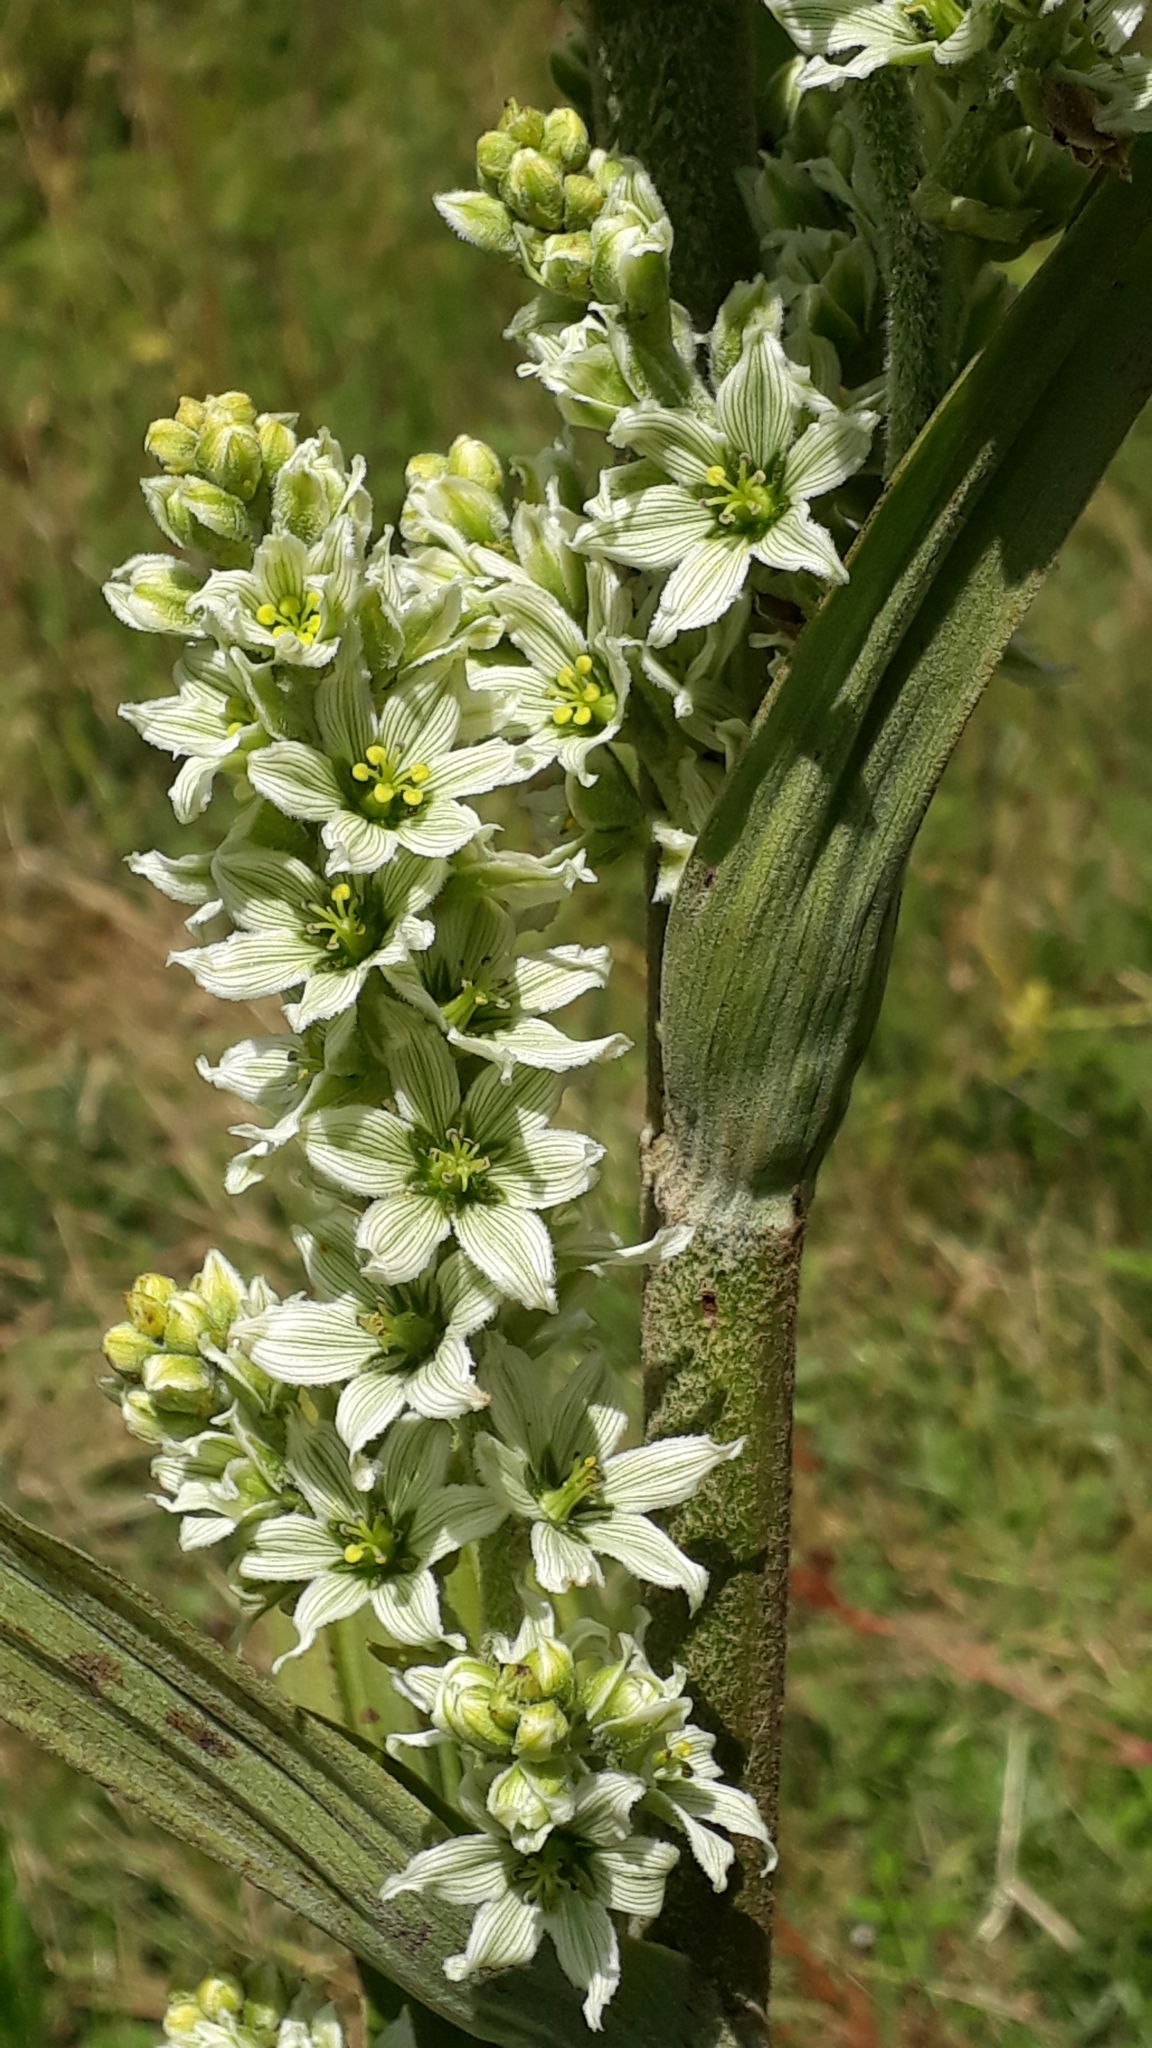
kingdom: Plantae
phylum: Tracheophyta
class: Liliopsida
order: Liliales
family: Melanthiaceae
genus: Veratrum
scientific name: Veratrum album
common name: White veratrum
